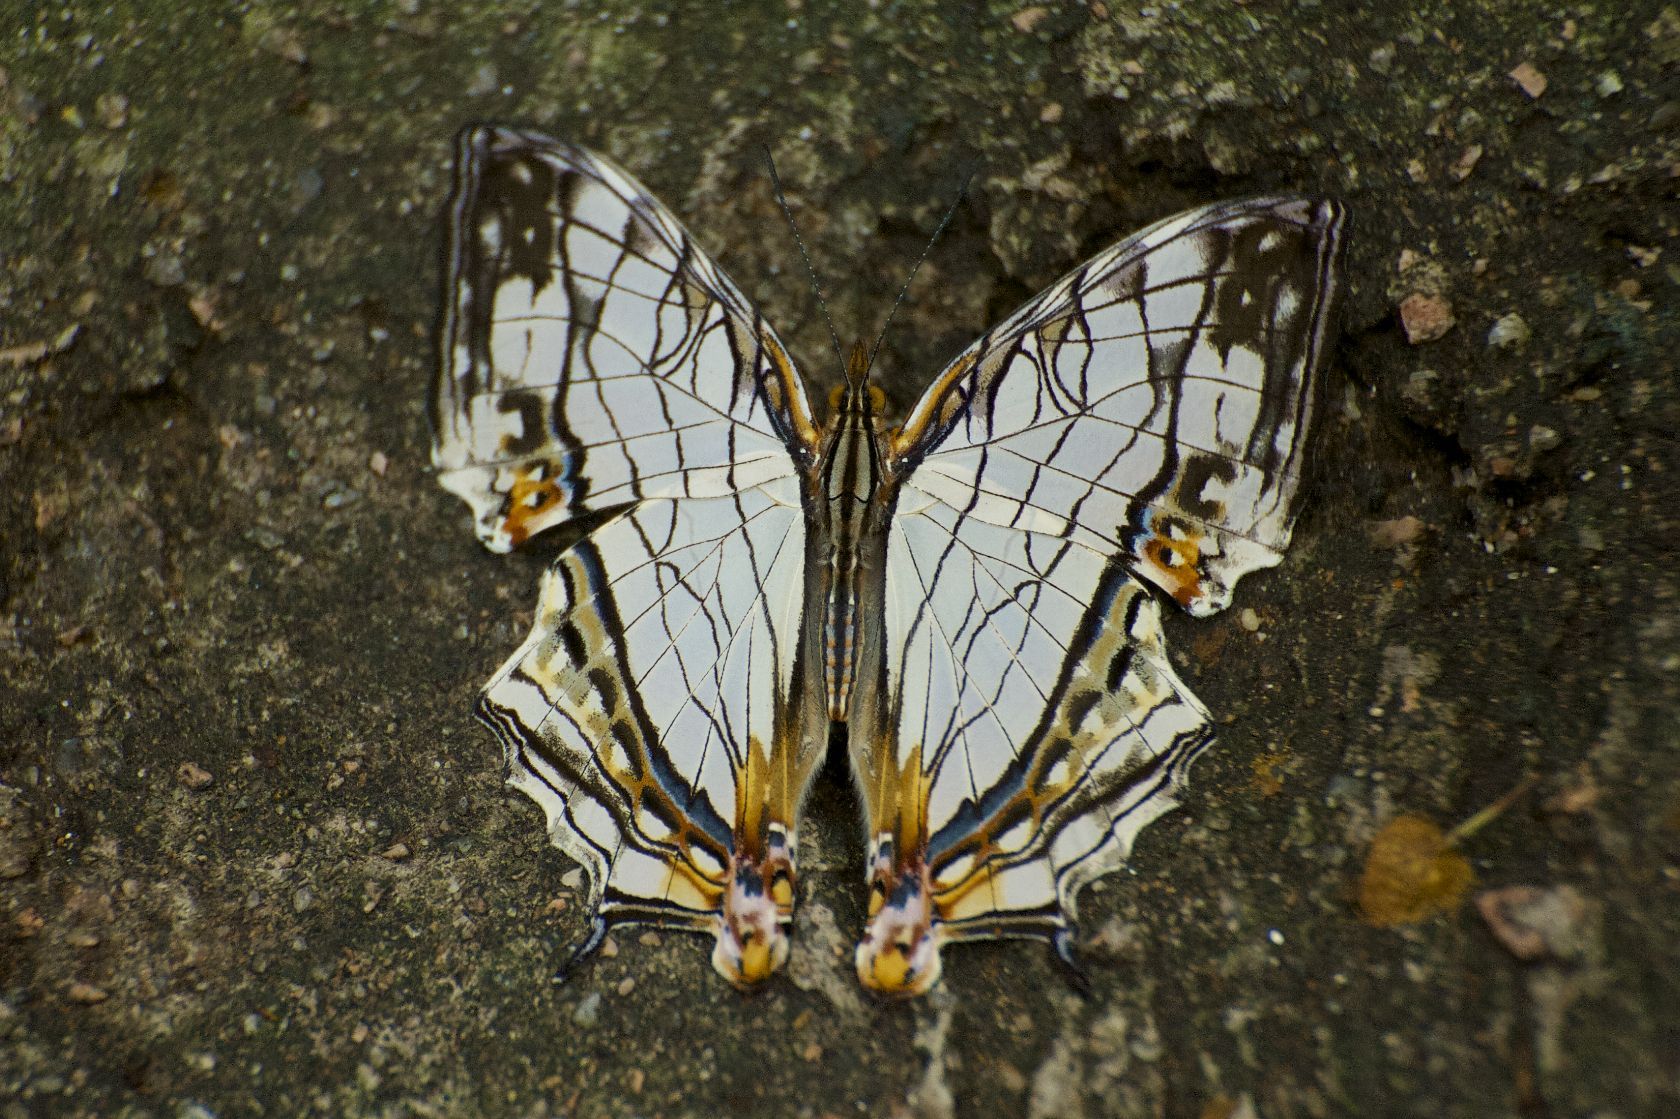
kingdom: Animalia
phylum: Arthropoda
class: Insecta
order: Lepidoptera
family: Nymphalidae
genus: Cyrestis
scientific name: Cyrestis thyodamas
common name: Common mapwing
